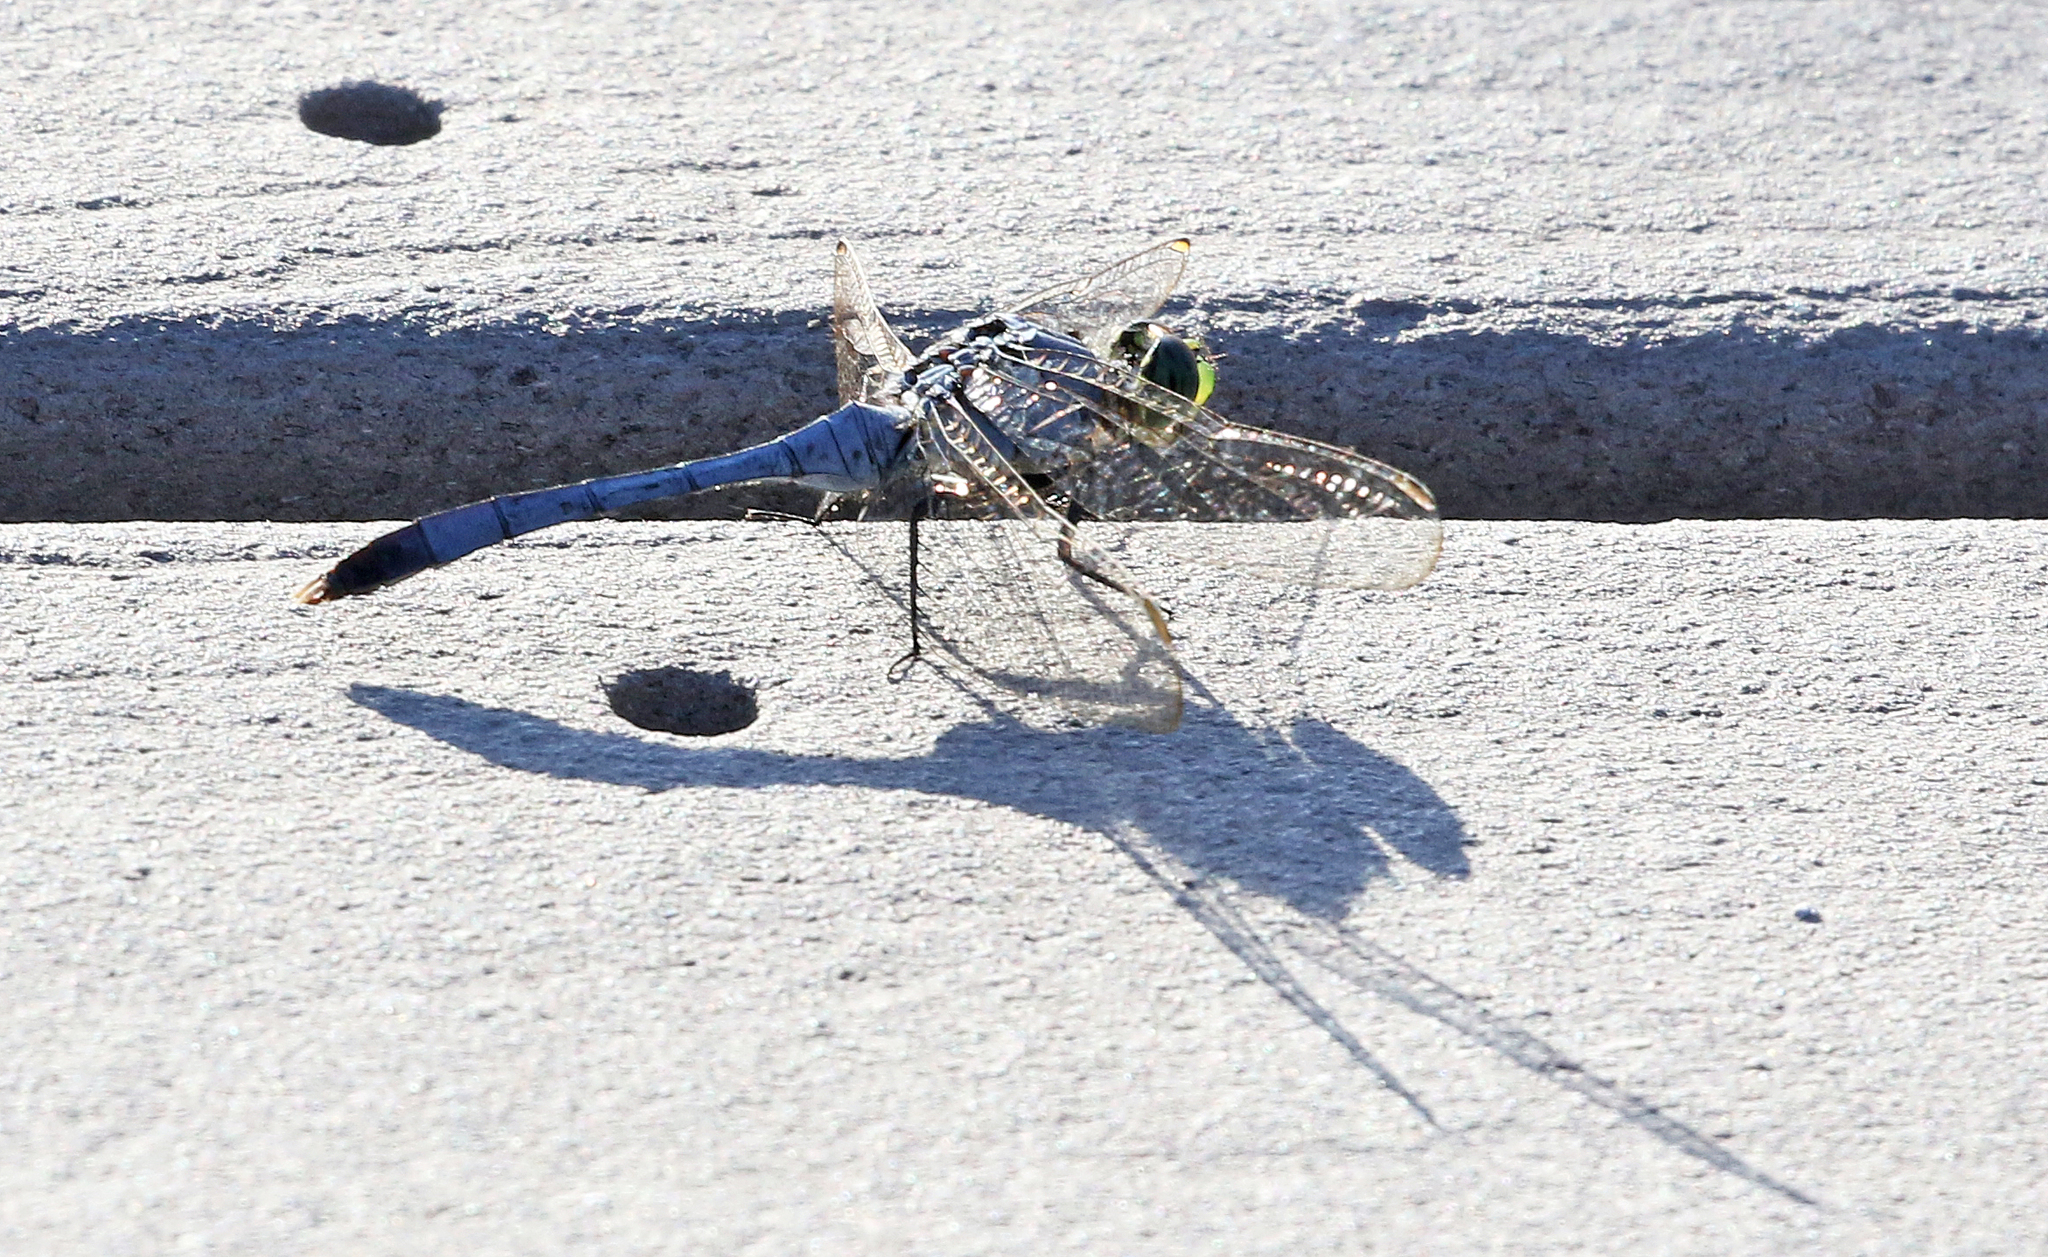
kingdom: Animalia
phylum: Arthropoda
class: Insecta
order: Odonata
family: Libellulidae
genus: Erythemis
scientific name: Erythemis simplicicollis
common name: Eastern pondhawk
